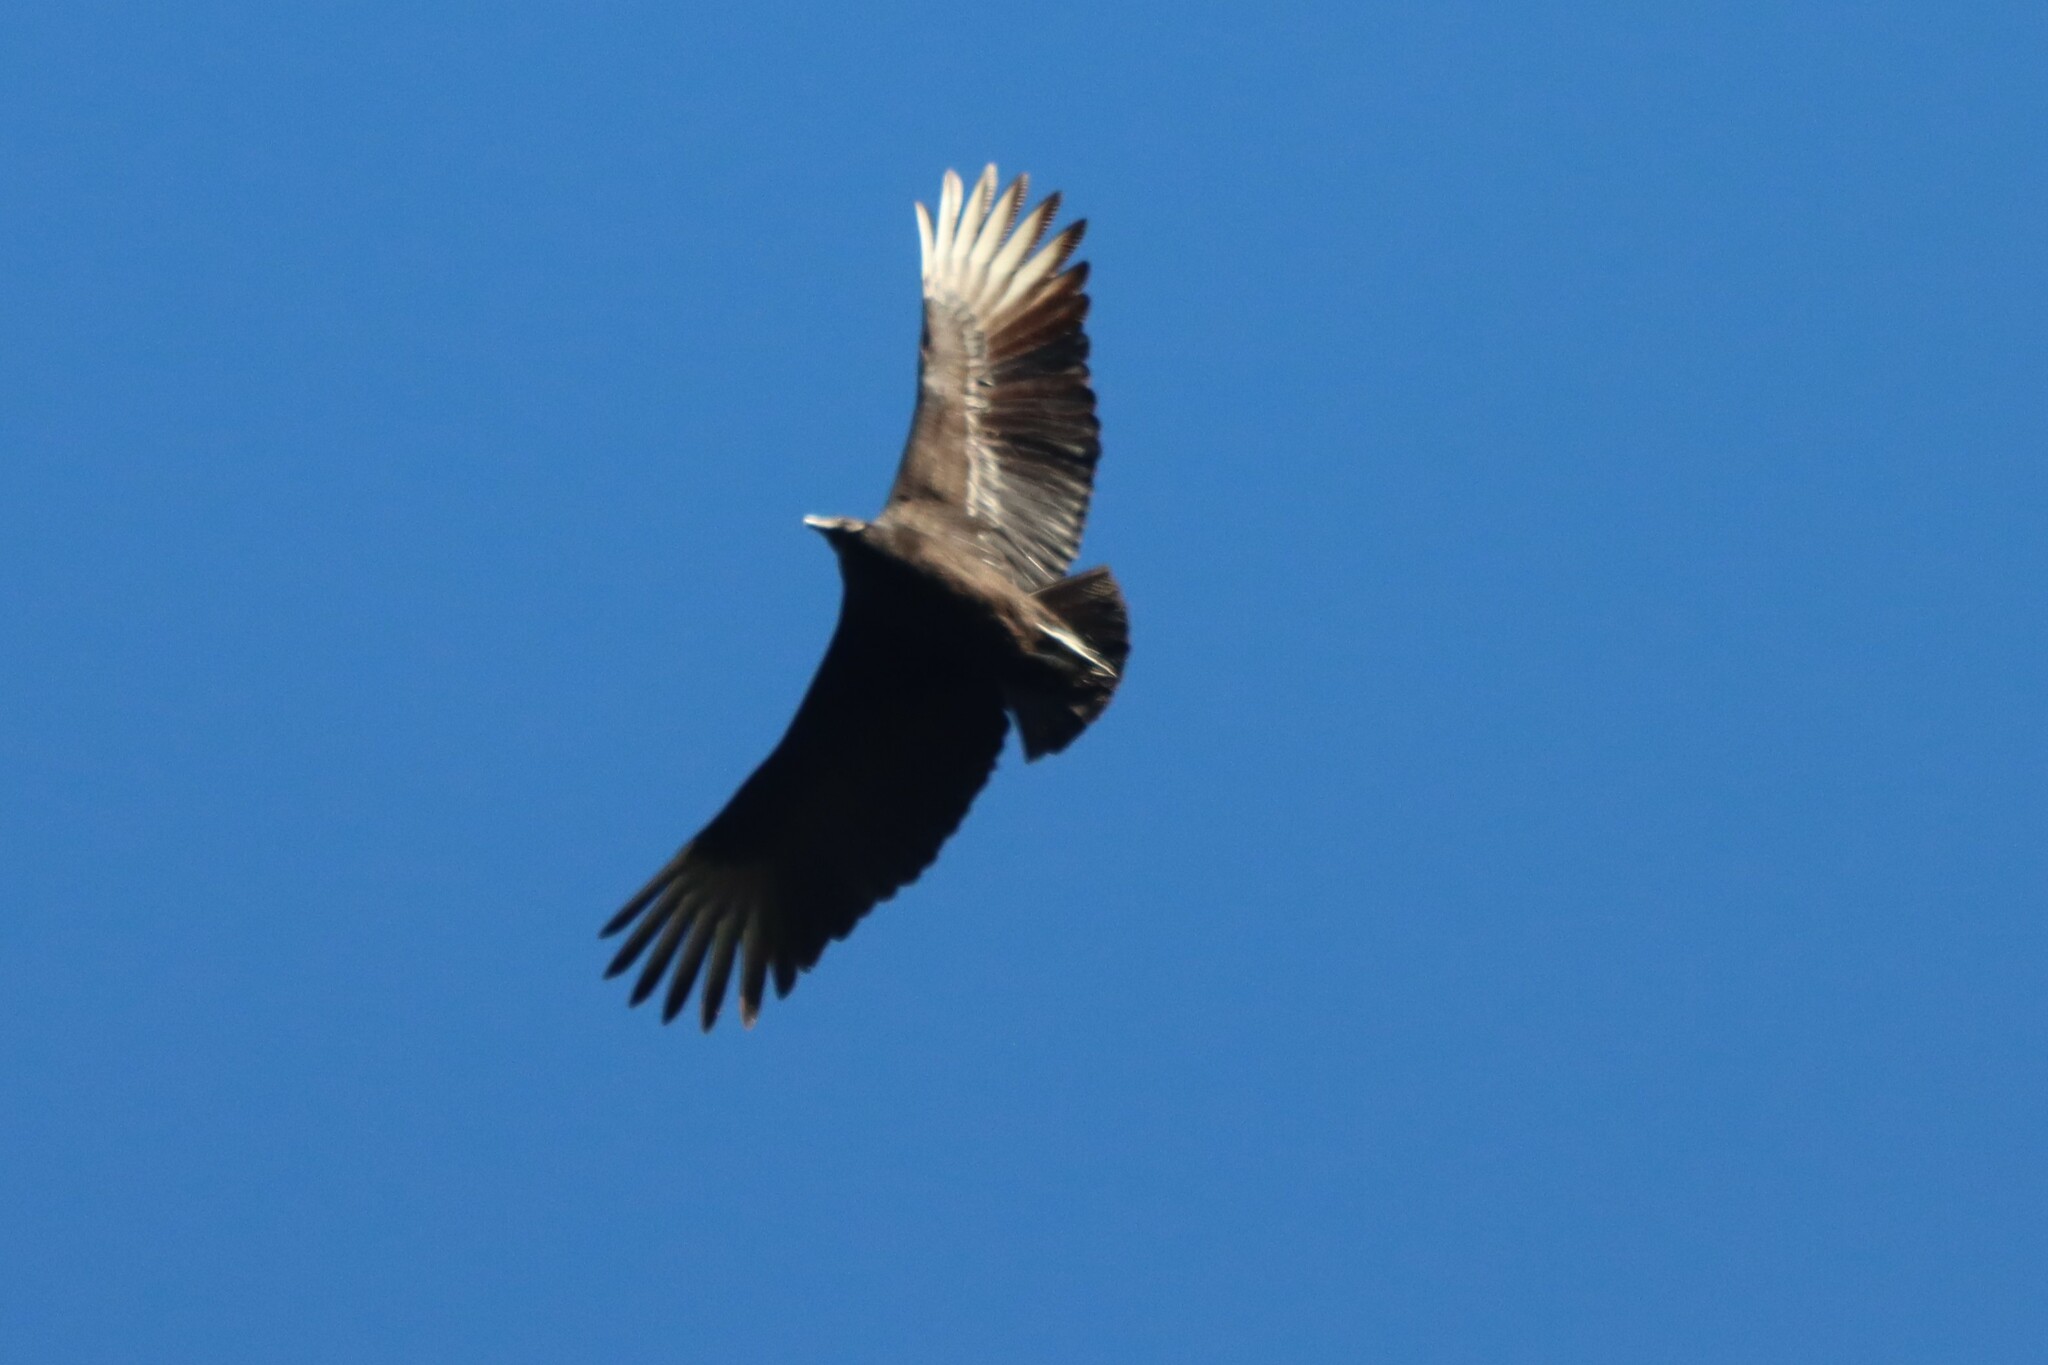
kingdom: Animalia
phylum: Chordata
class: Aves
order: Accipitriformes
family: Cathartidae
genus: Coragyps
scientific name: Coragyps atratus
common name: Black vulture
